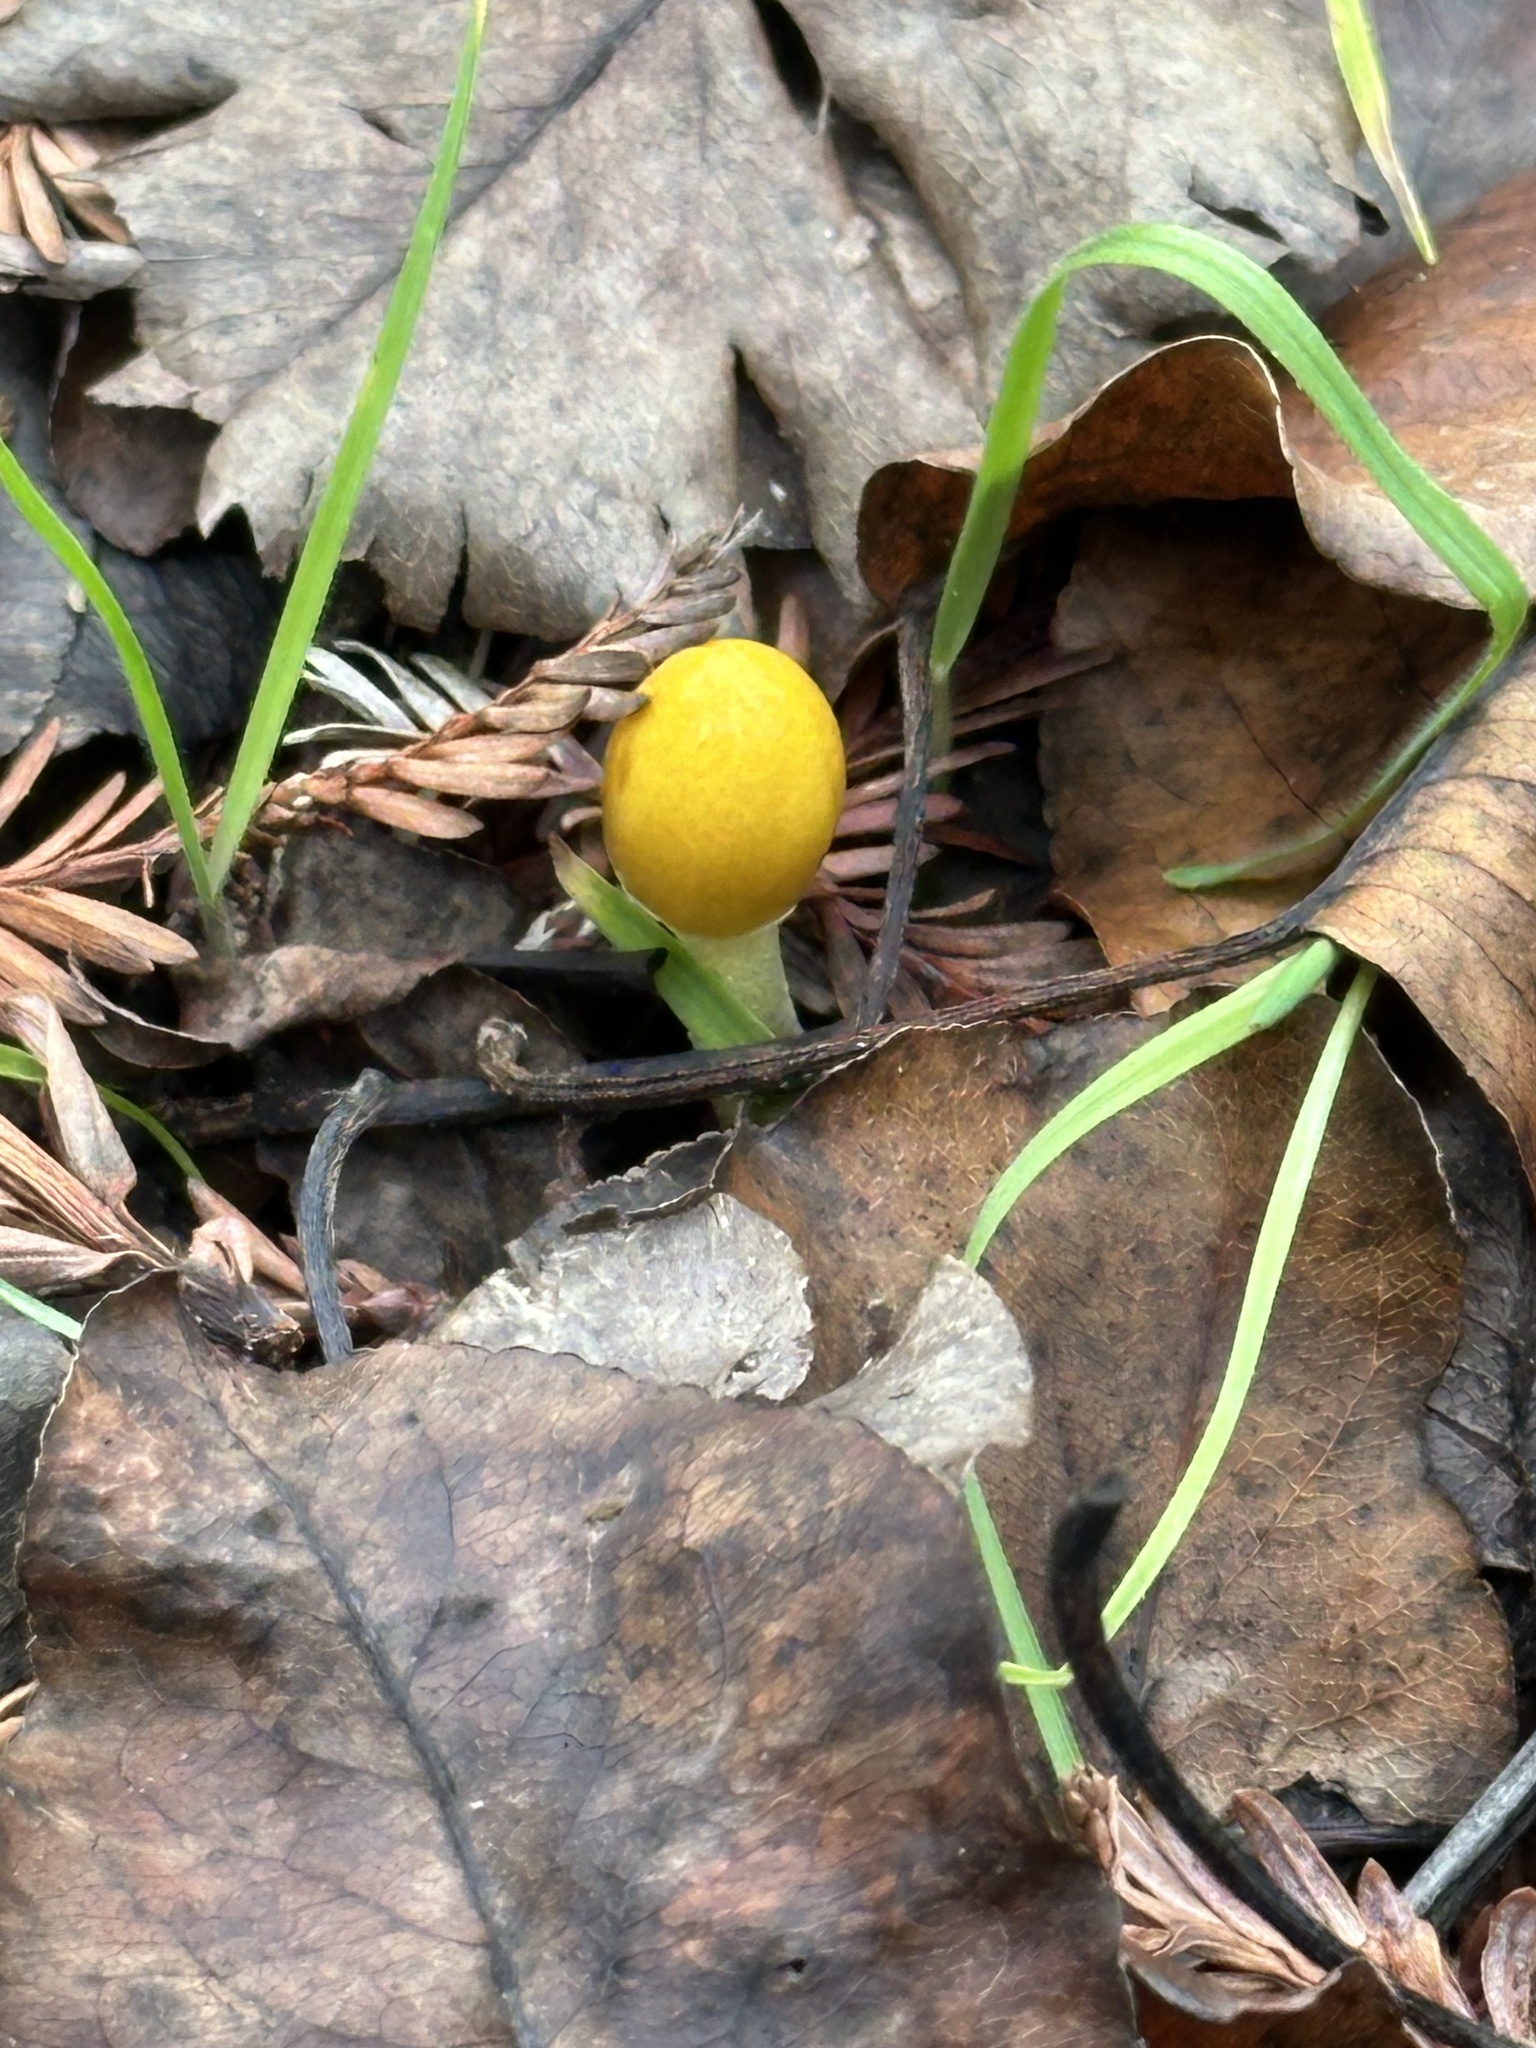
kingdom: Fungi
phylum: Basidiomycota
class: Agaricomycetes
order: Agaricales
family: Bolbitiaceae
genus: Bolbitius
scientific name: Bolbitius titubans
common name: Yellow fieldcap
